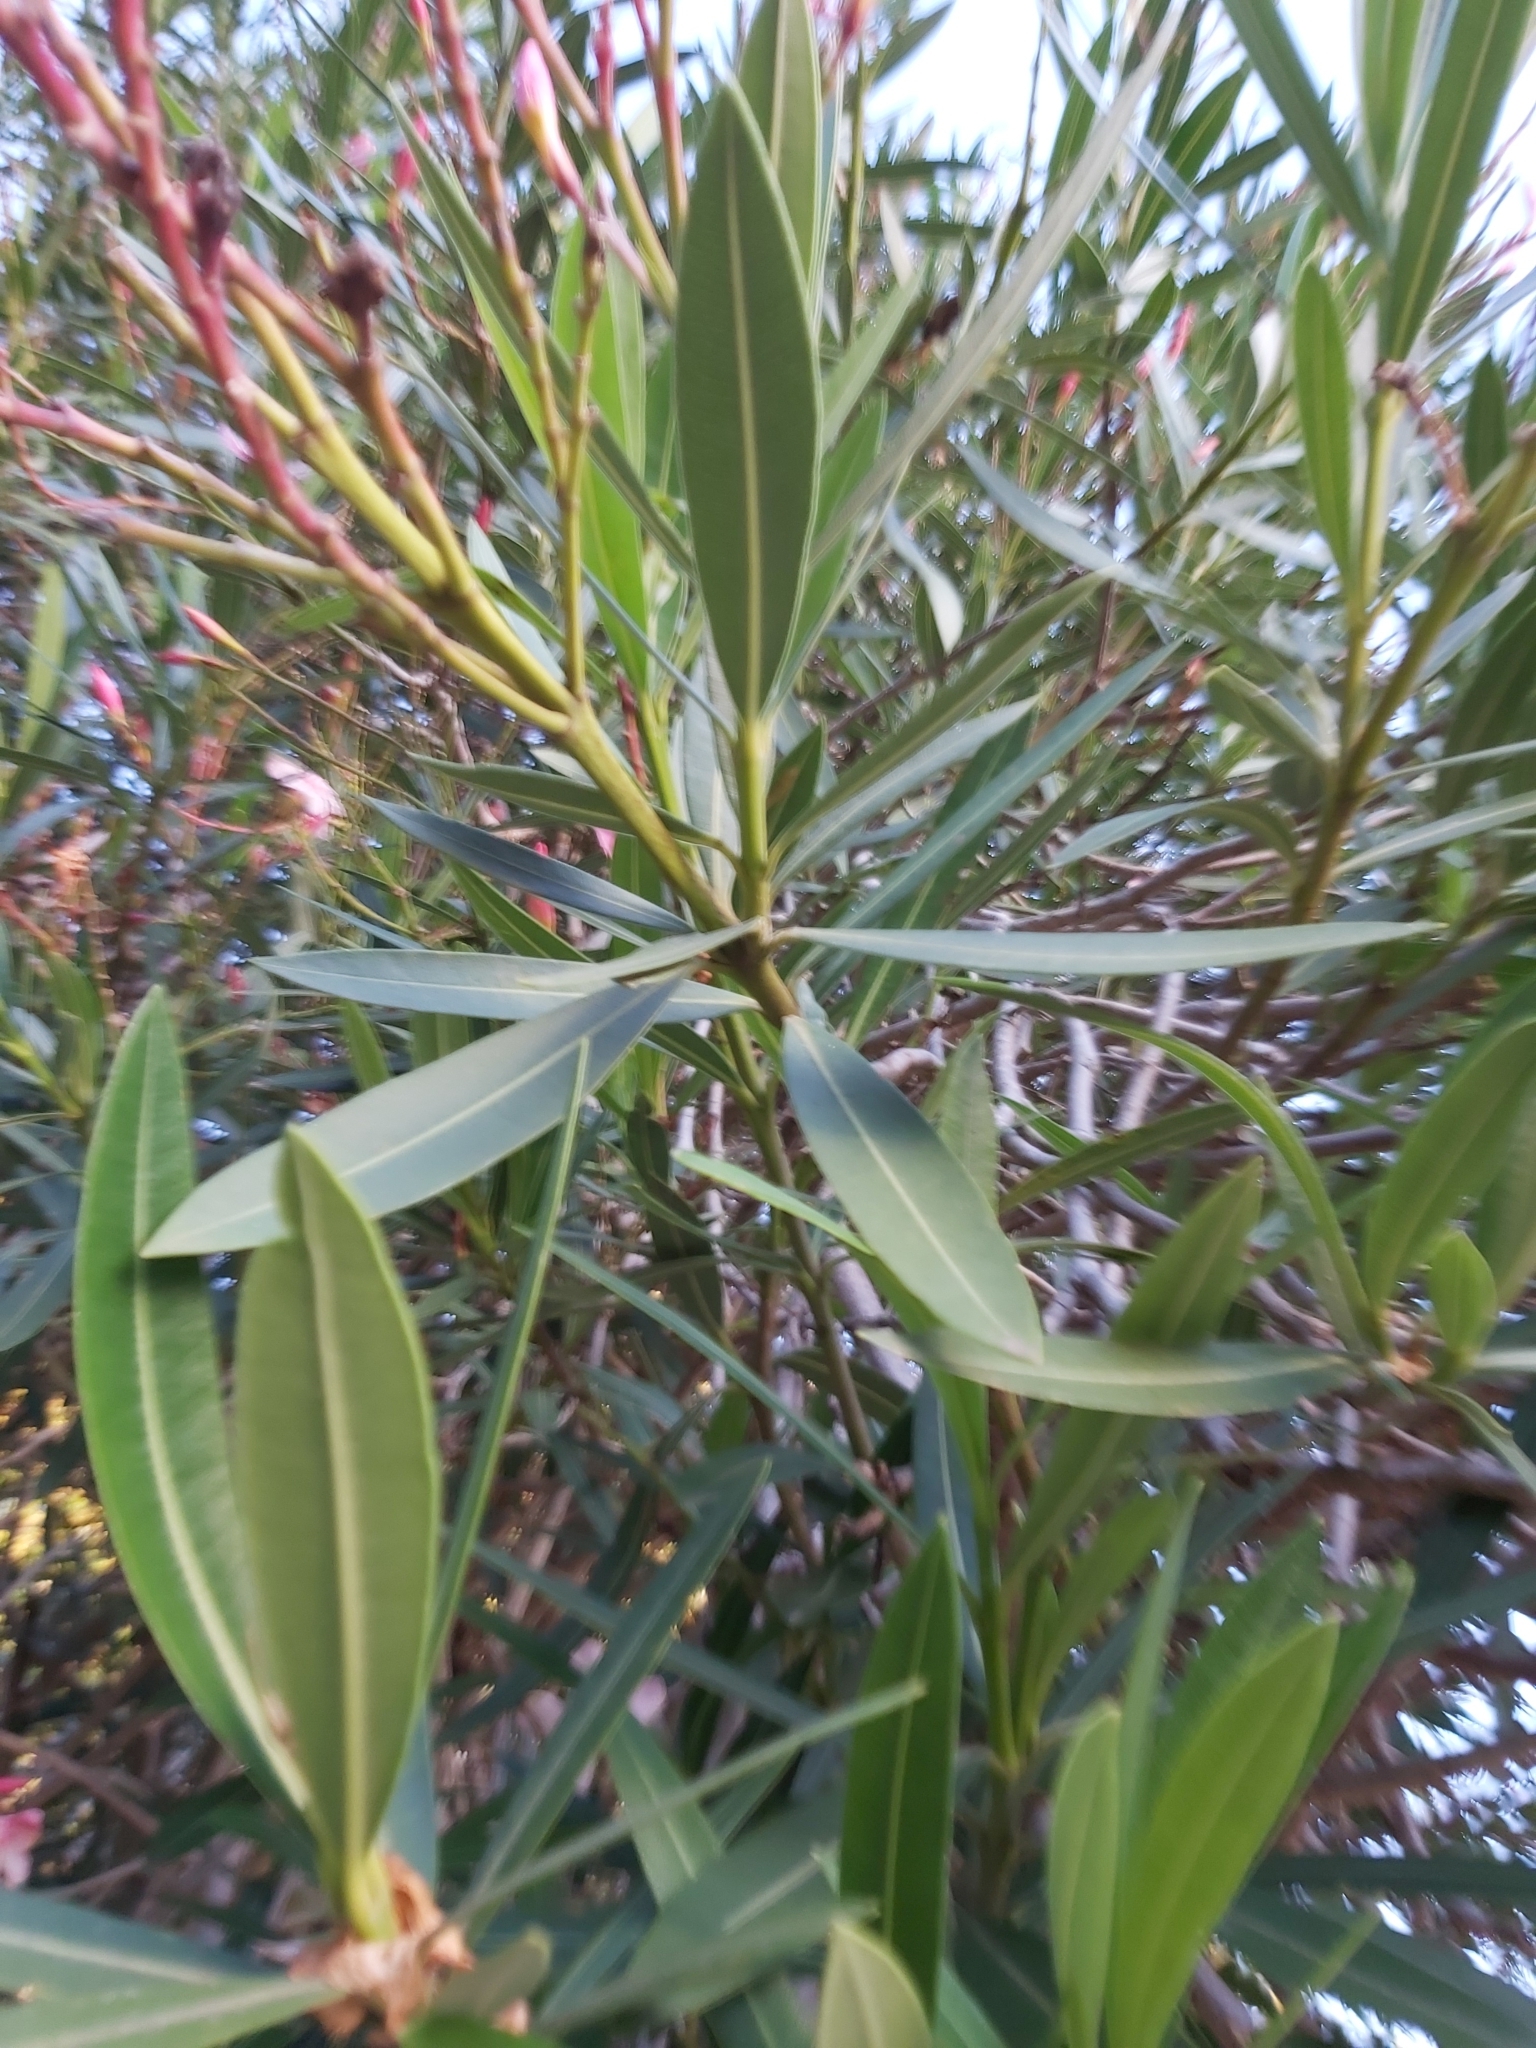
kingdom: Plantae
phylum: Tracheophyta
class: Magnoliopsida
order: Gentianales
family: Apocynaceae
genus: Nerium
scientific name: Nerium oleander
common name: Oleander
